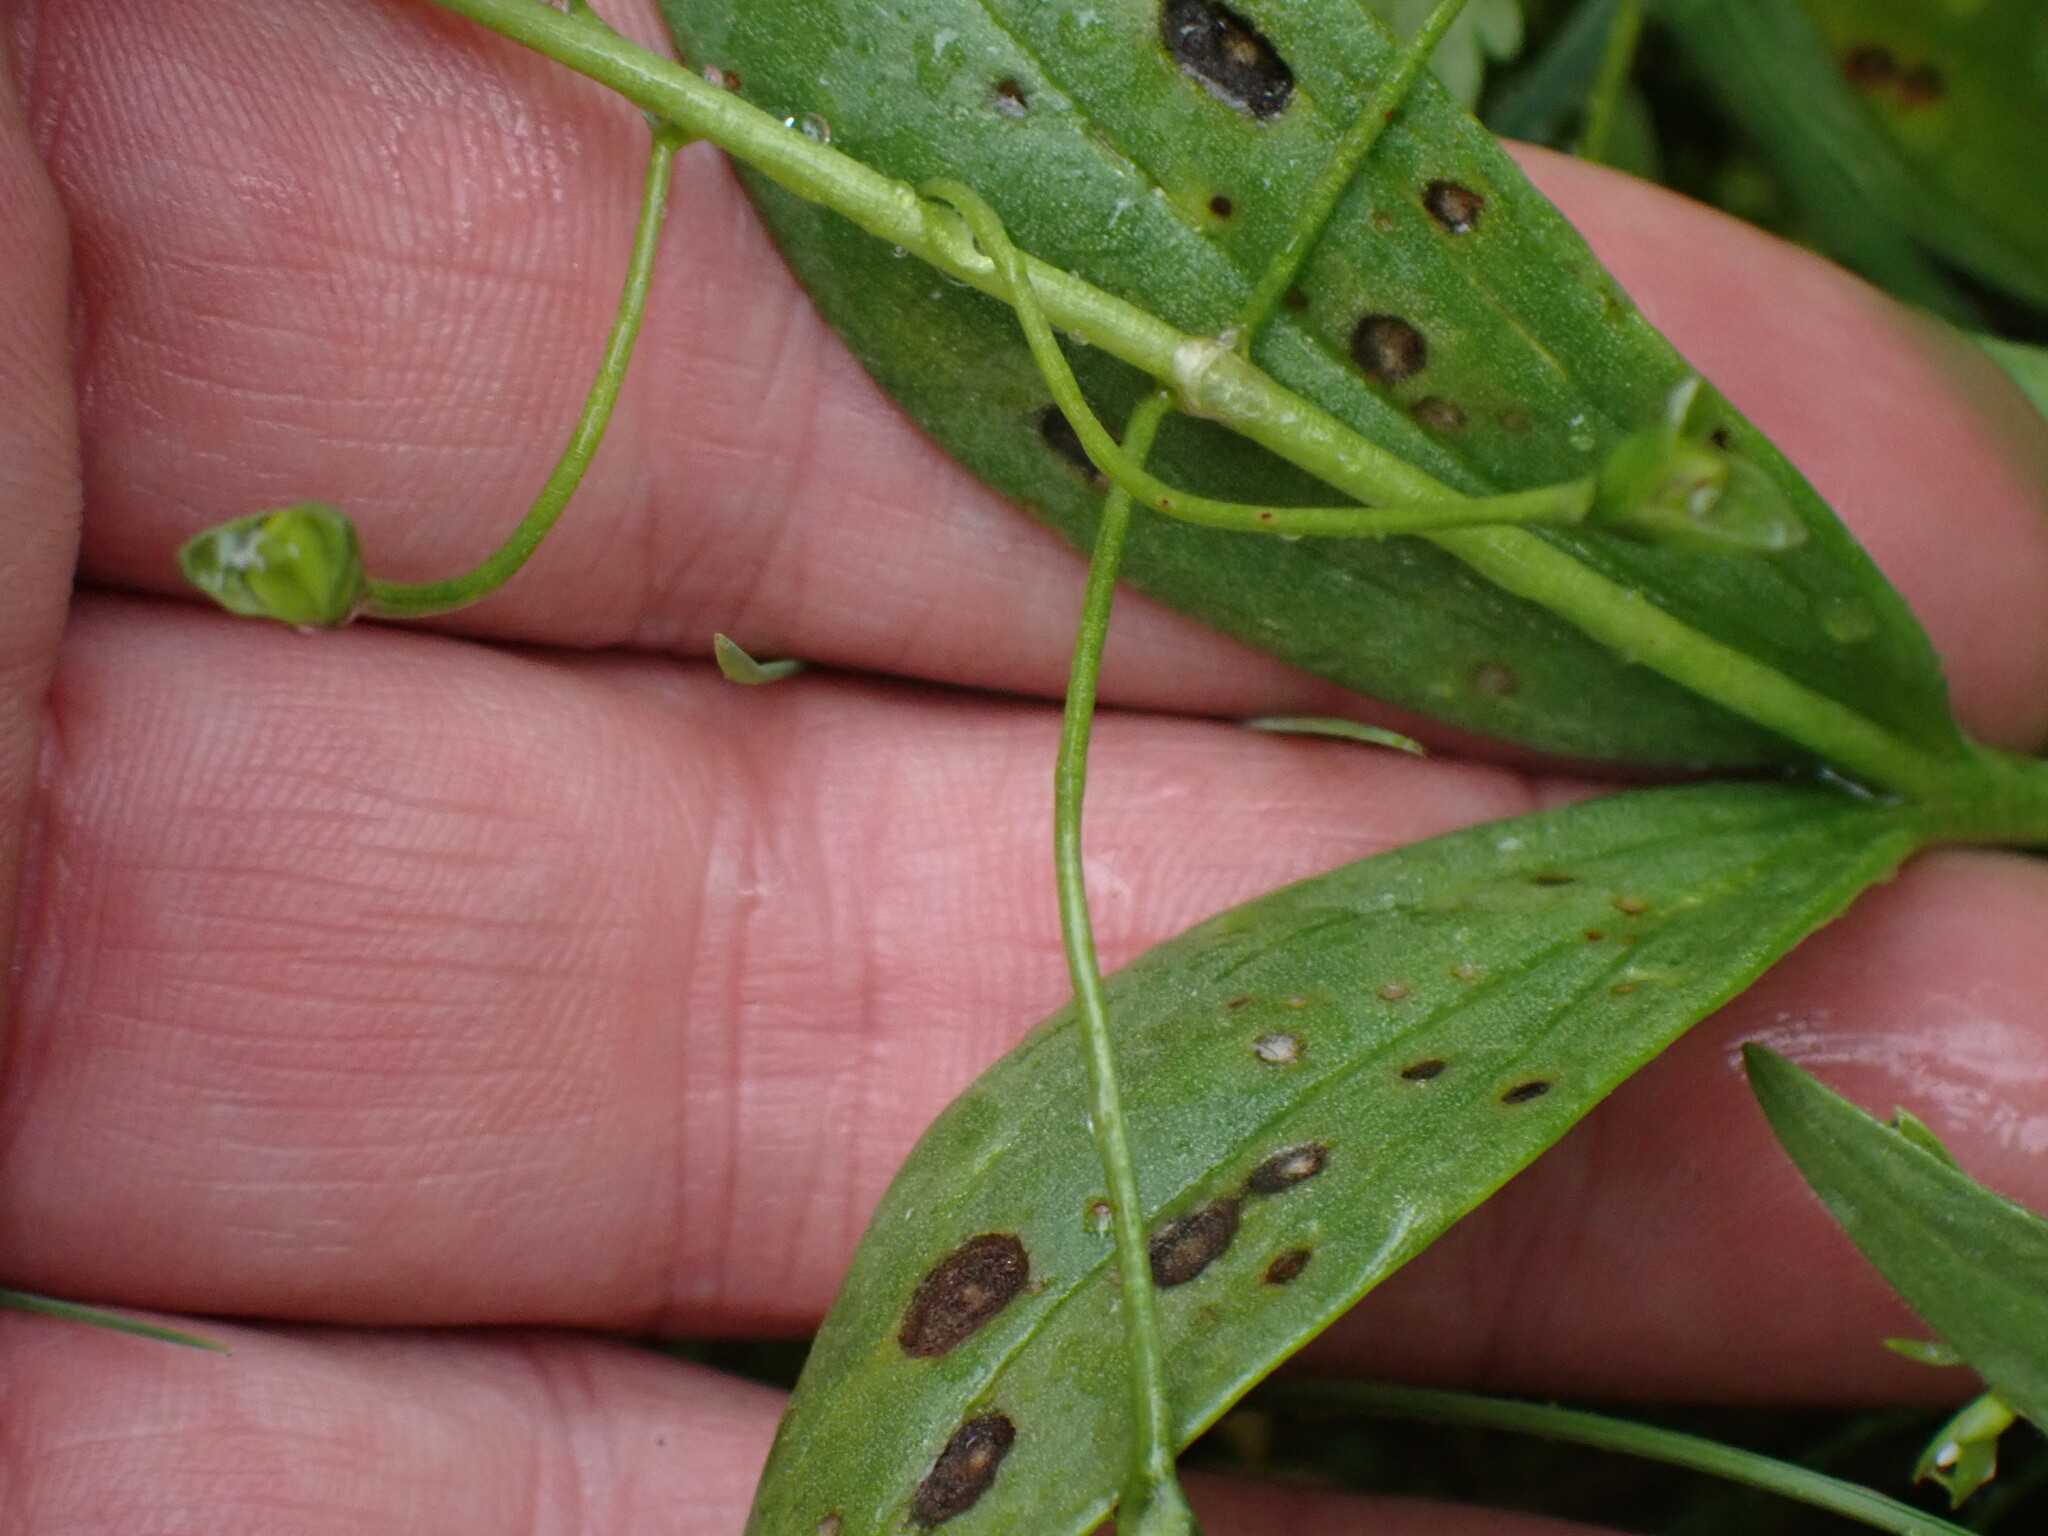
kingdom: Plantae
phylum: Tracheophyta
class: Magnoliopsida
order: Caryophyllales
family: Montiaceae
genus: Claytonia
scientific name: Claytonia lanceolata
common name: Western spring-beauty
